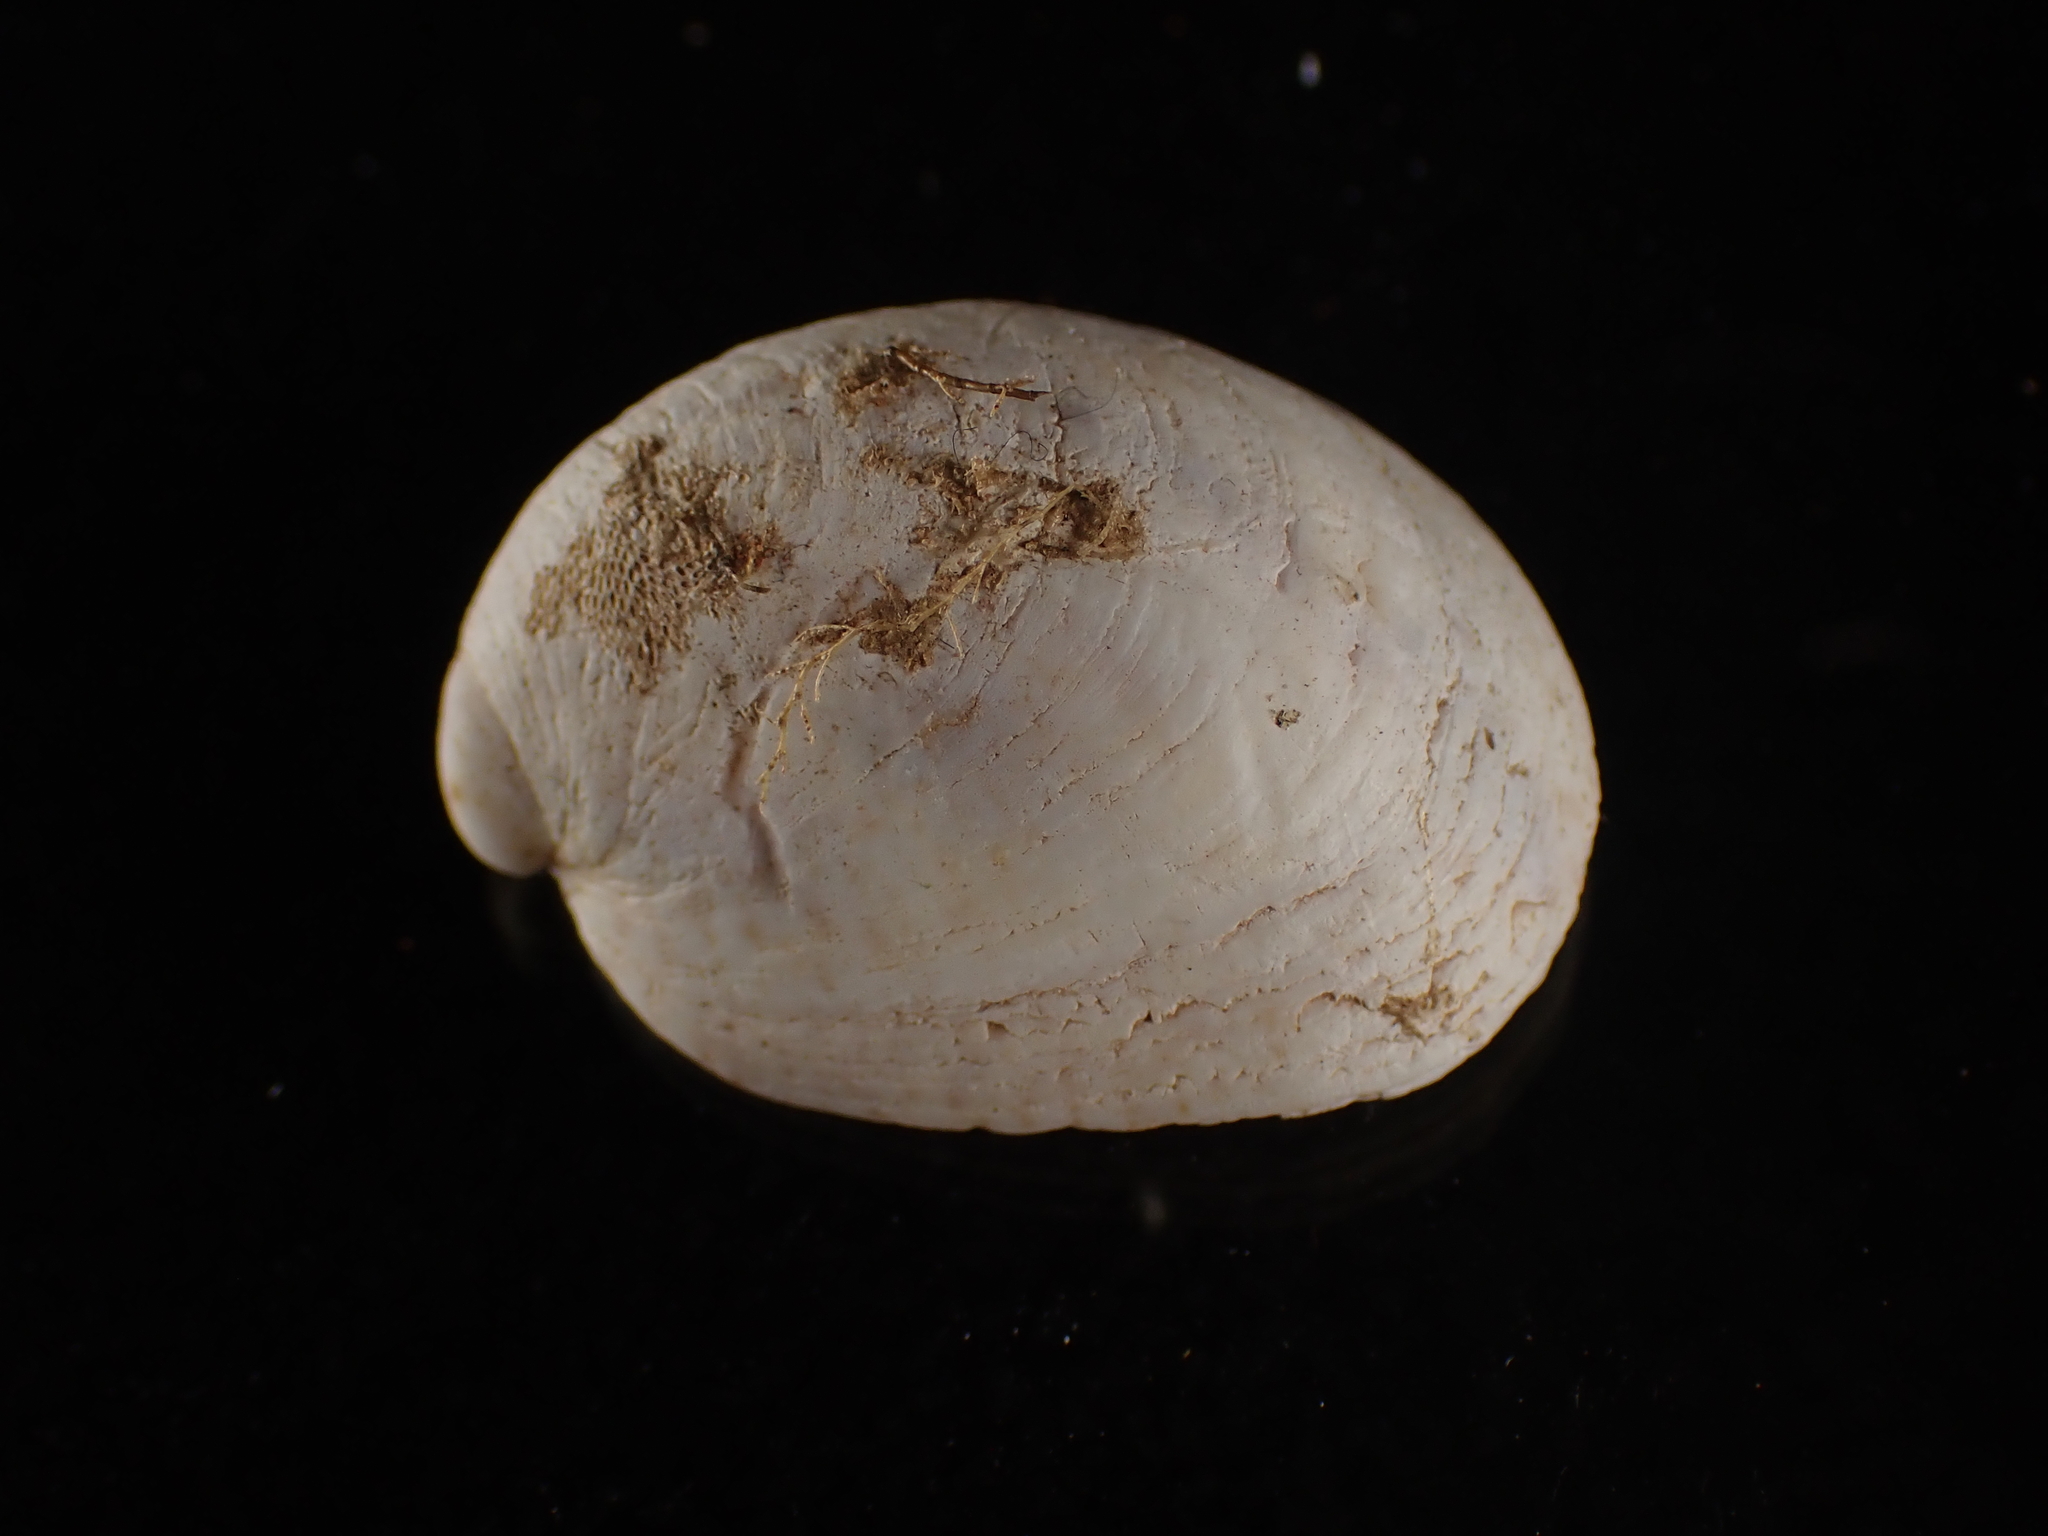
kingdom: Animalia
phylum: Mollusca
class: Gastropoda
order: Littorinimorpha
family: Calyptraeidae
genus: Crepidula
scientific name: Crepidula fornicata
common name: Slipper limpet
